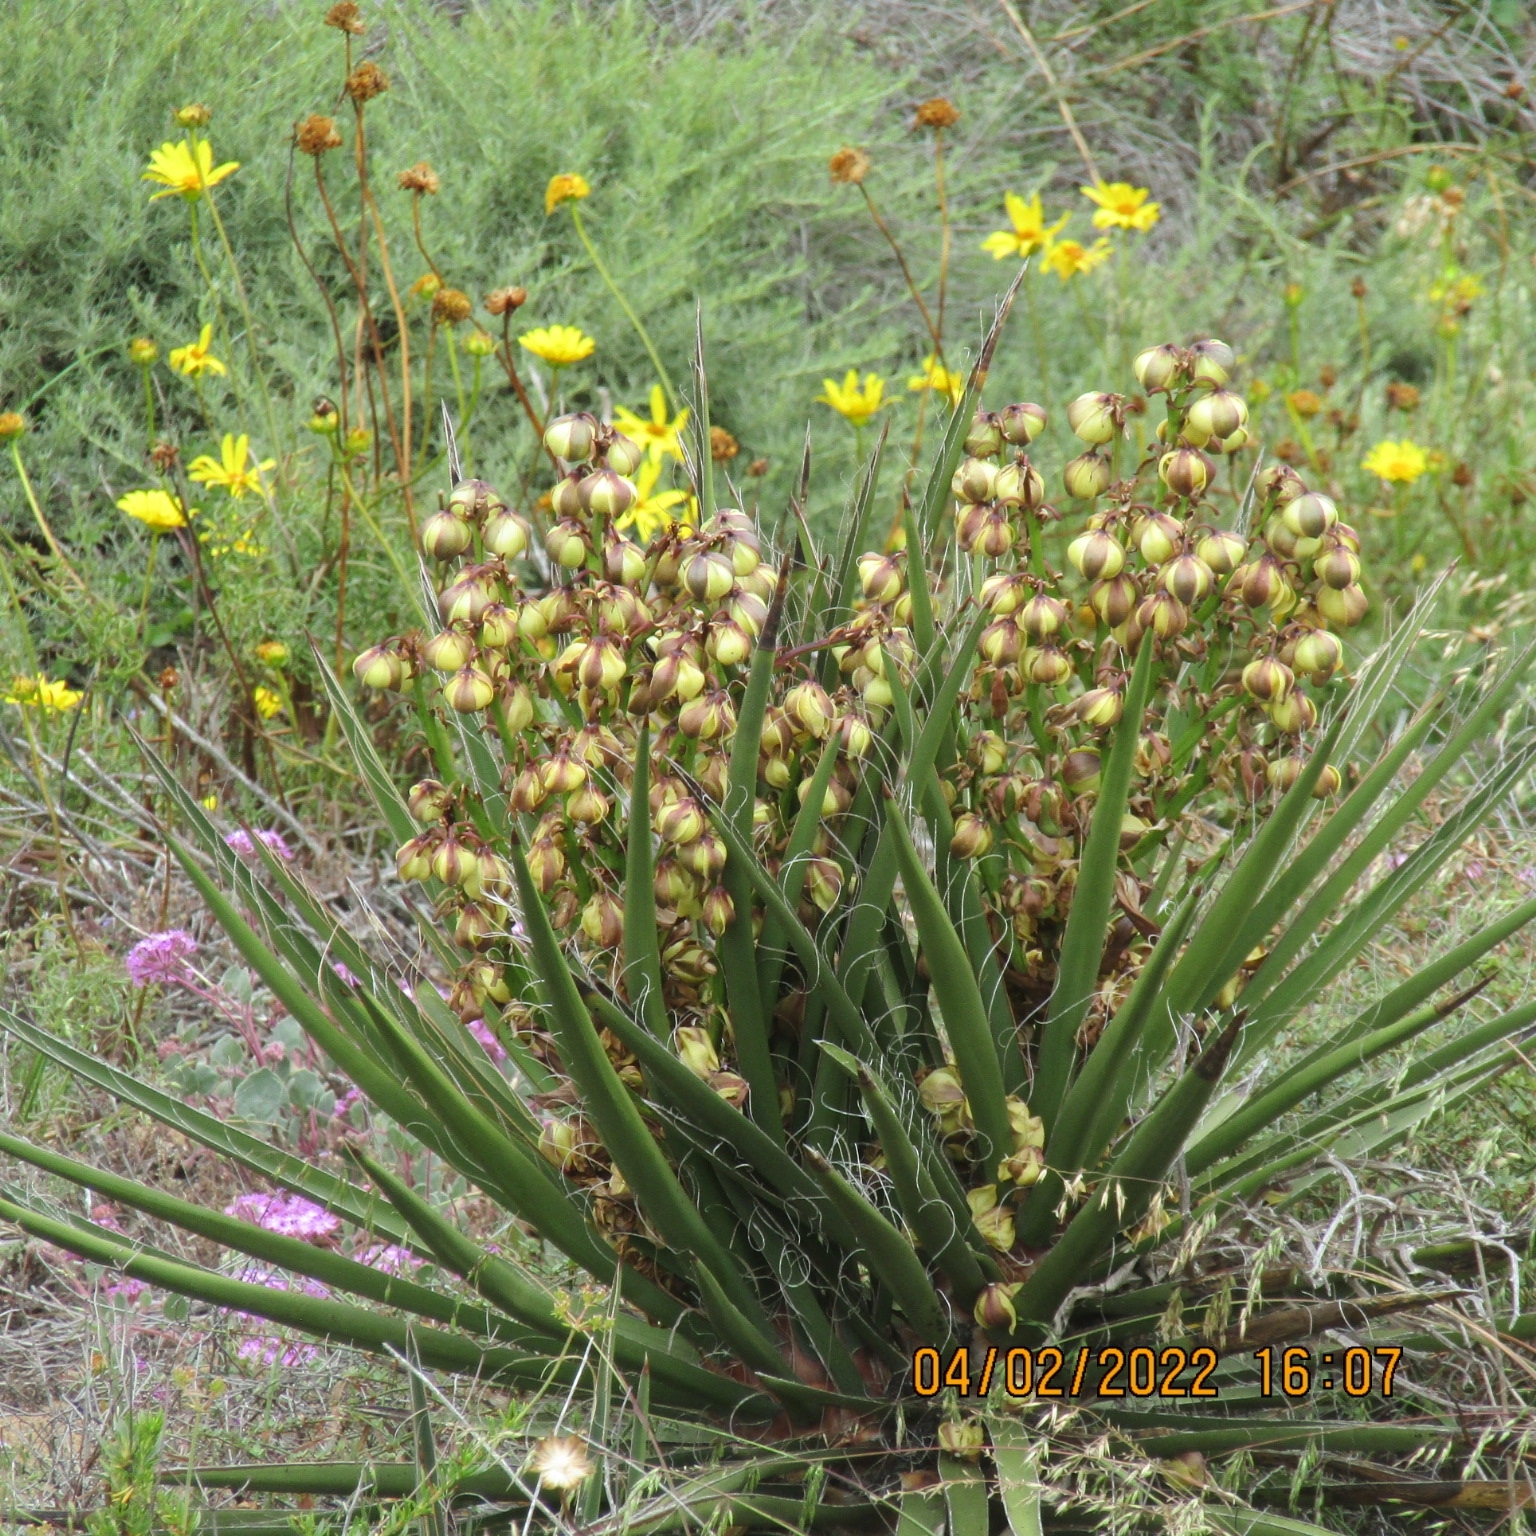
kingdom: Plantae
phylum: Tracheophyta
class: Liliopsida
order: Asparagales
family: Asparagaceae
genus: Yucca
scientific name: Yucca schidigera
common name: Mojave yucca
